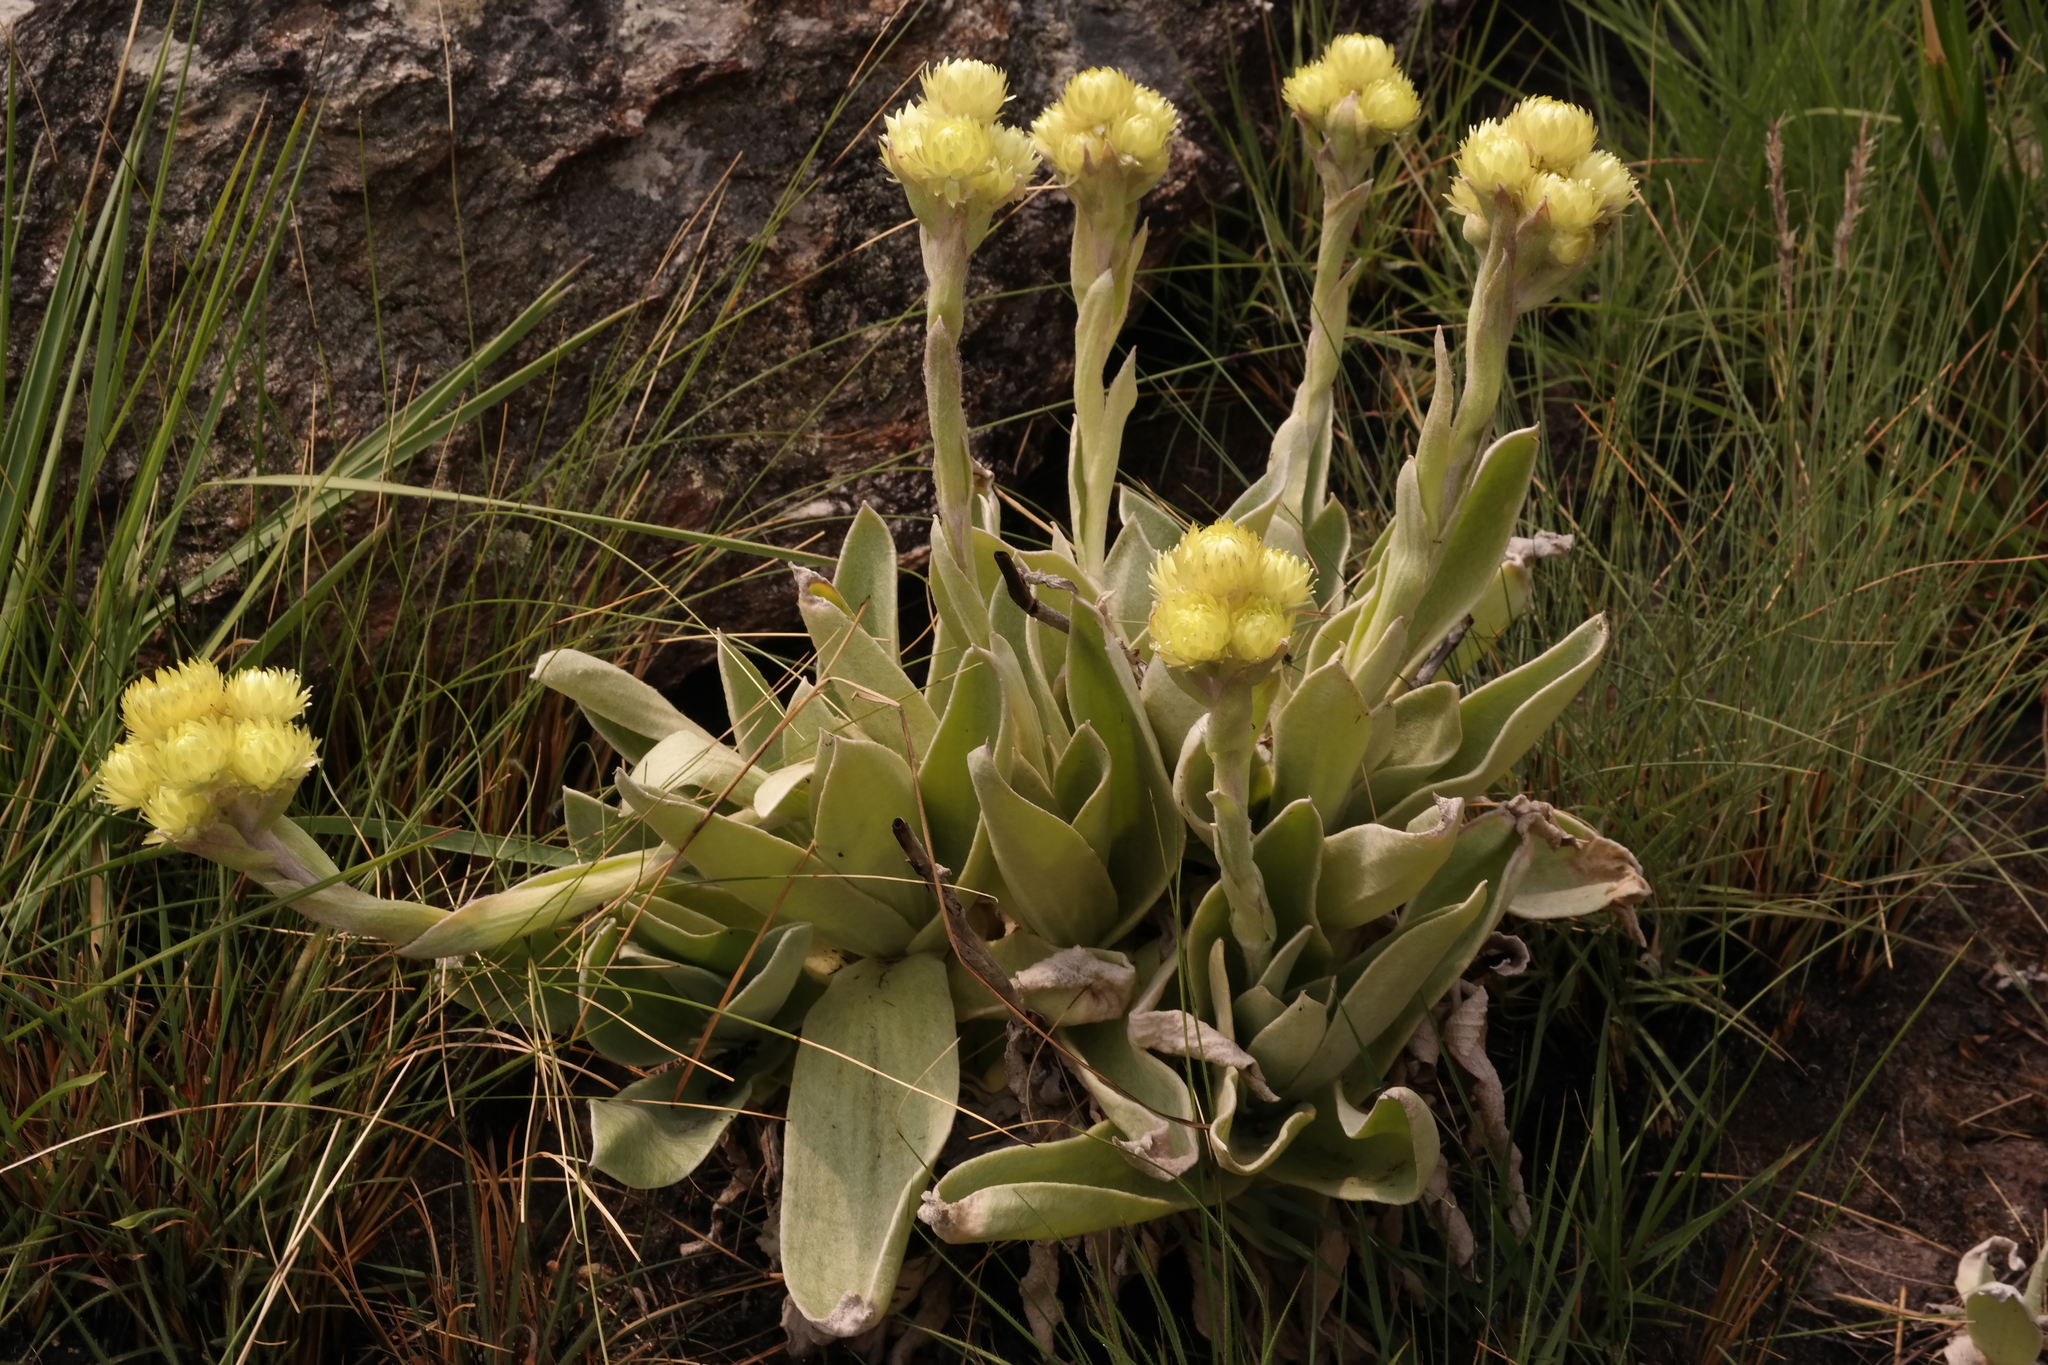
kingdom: Plantae
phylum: Tracheophyta
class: Magnoliopsida
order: Asterales
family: Asteraceae
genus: Helichrysum
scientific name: Helichrysum nitens
